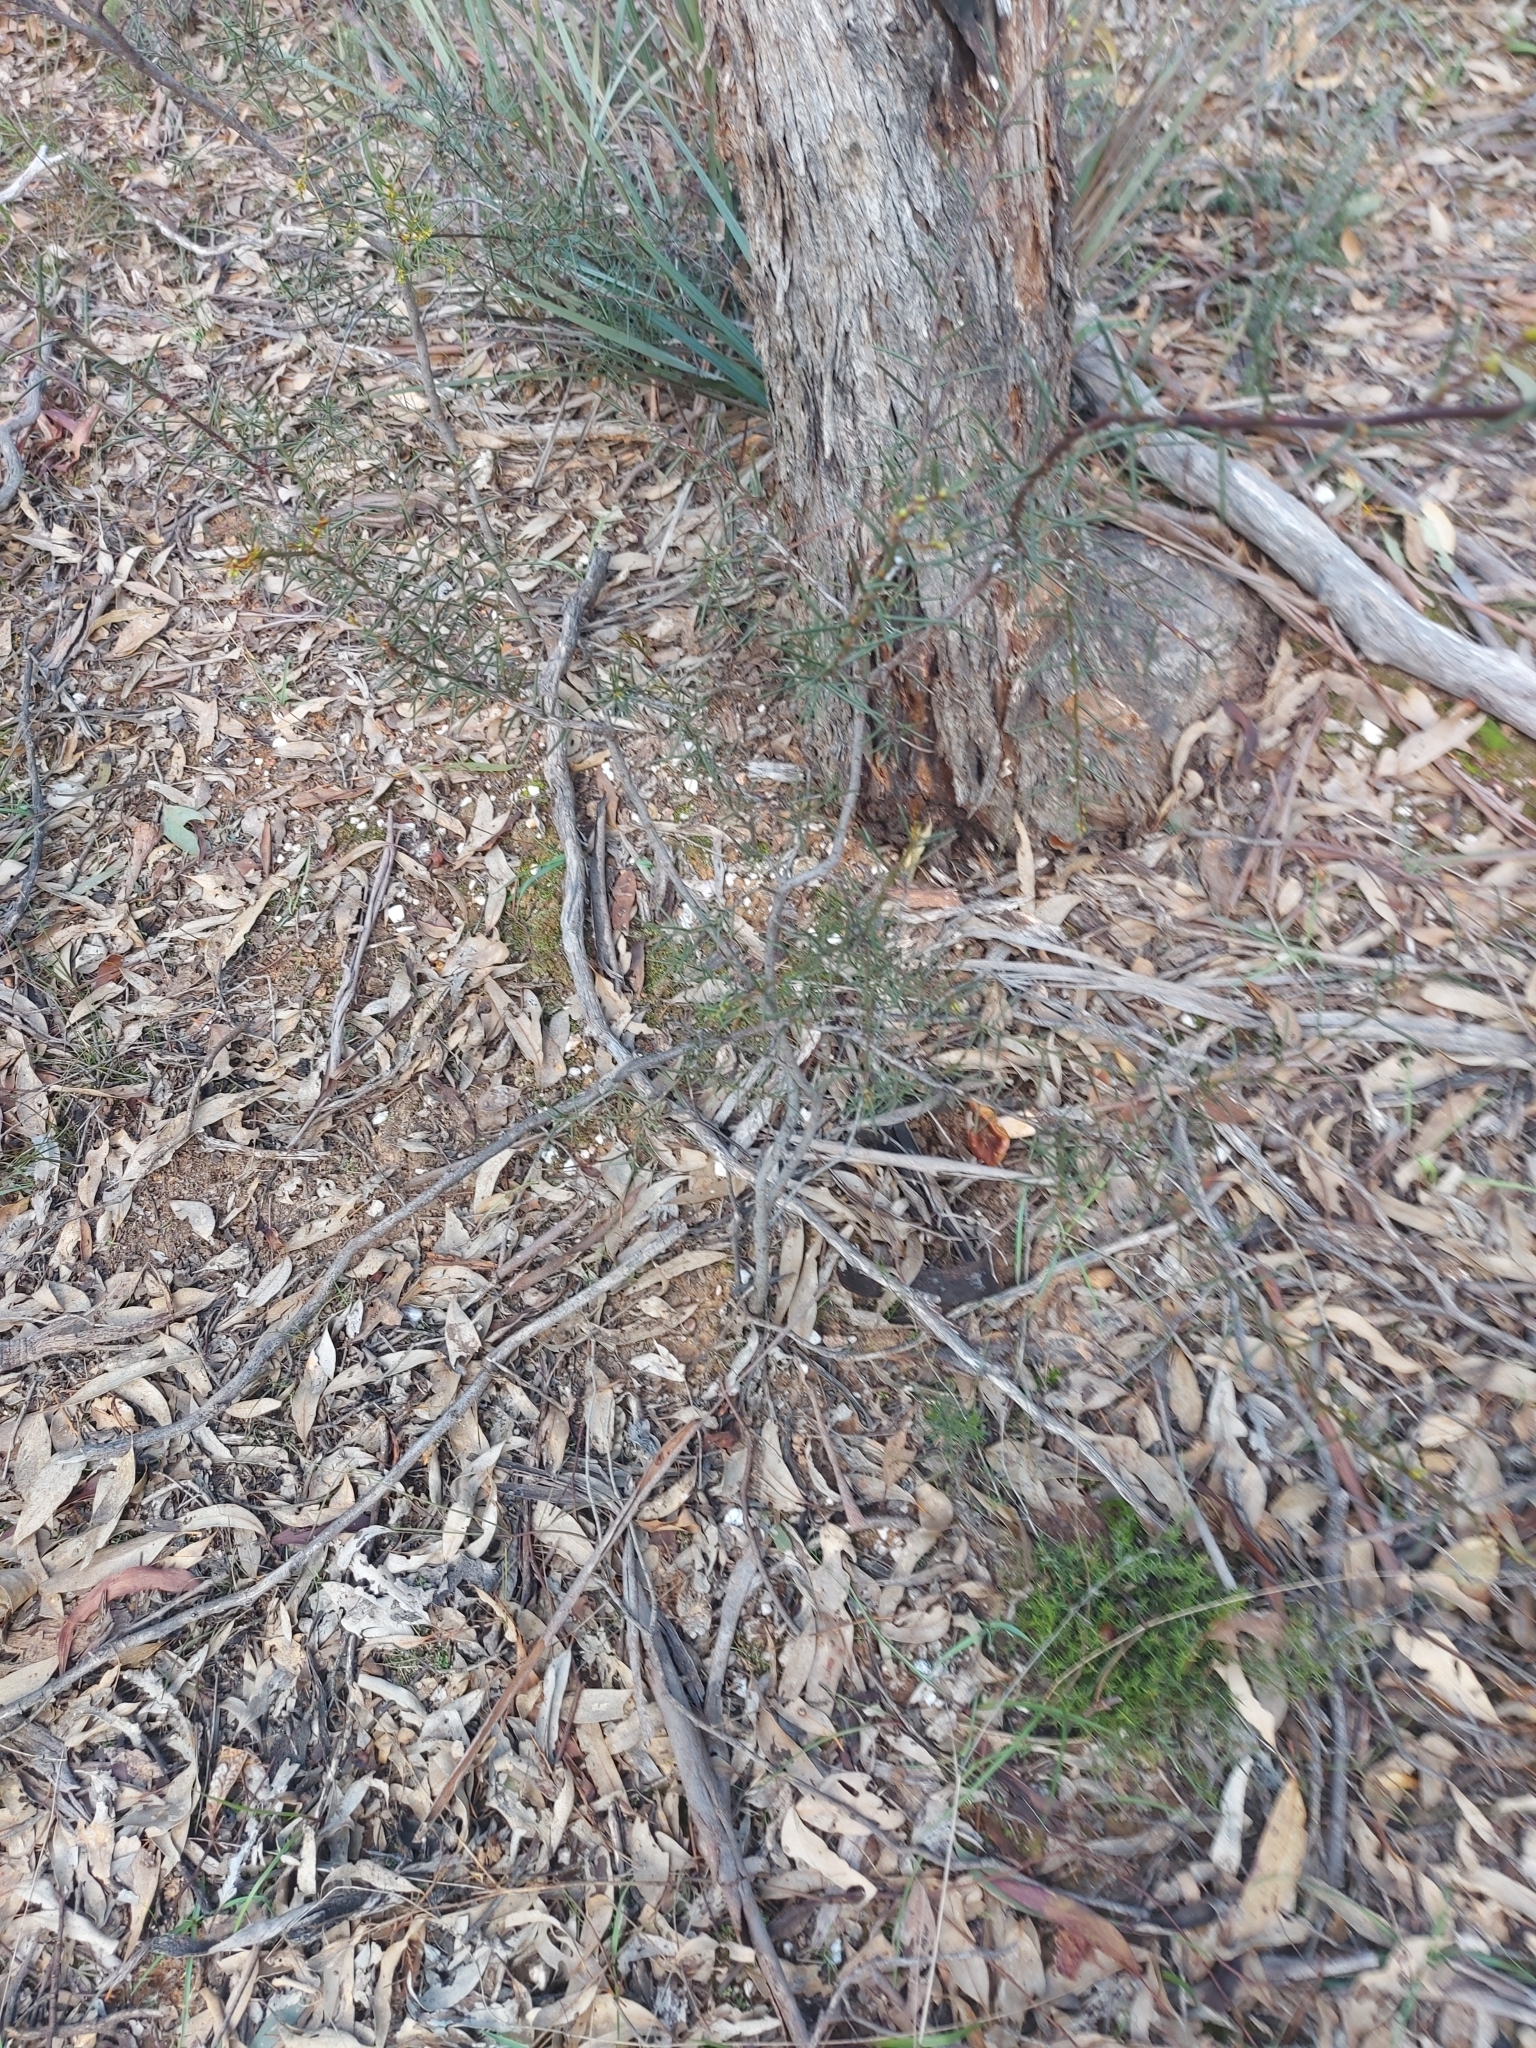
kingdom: Plantae
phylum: Tracheophyta
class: Magnoliopsida
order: Fabales
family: Fabaceae
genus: Acacia
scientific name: Acacia genistifolia
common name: Early wattle
